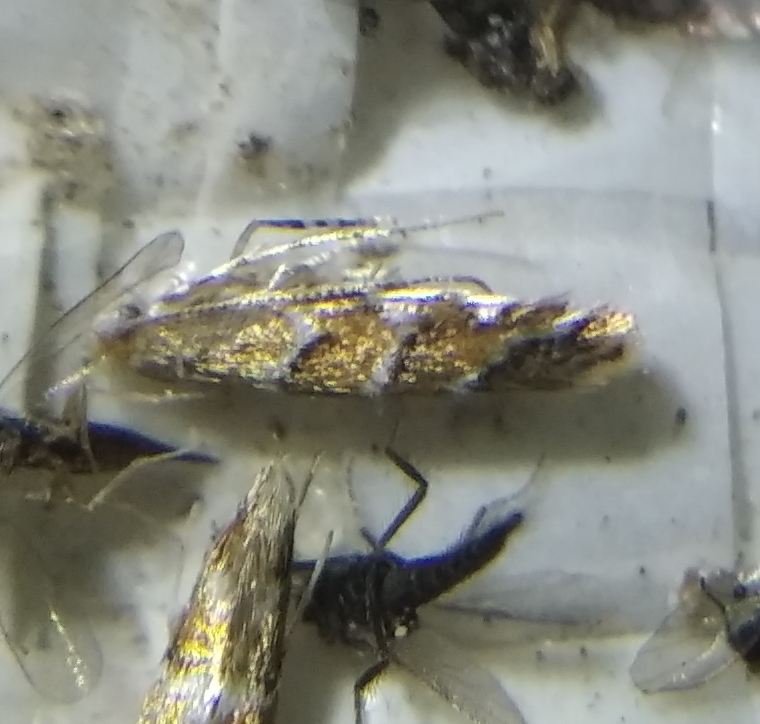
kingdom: Animalia
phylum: Arthropoda
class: Insecta
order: Lepidoptera
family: Gracillariidae
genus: Cameraria
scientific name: Cameraria ohridella
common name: Horse-chestnut leaf-miner
